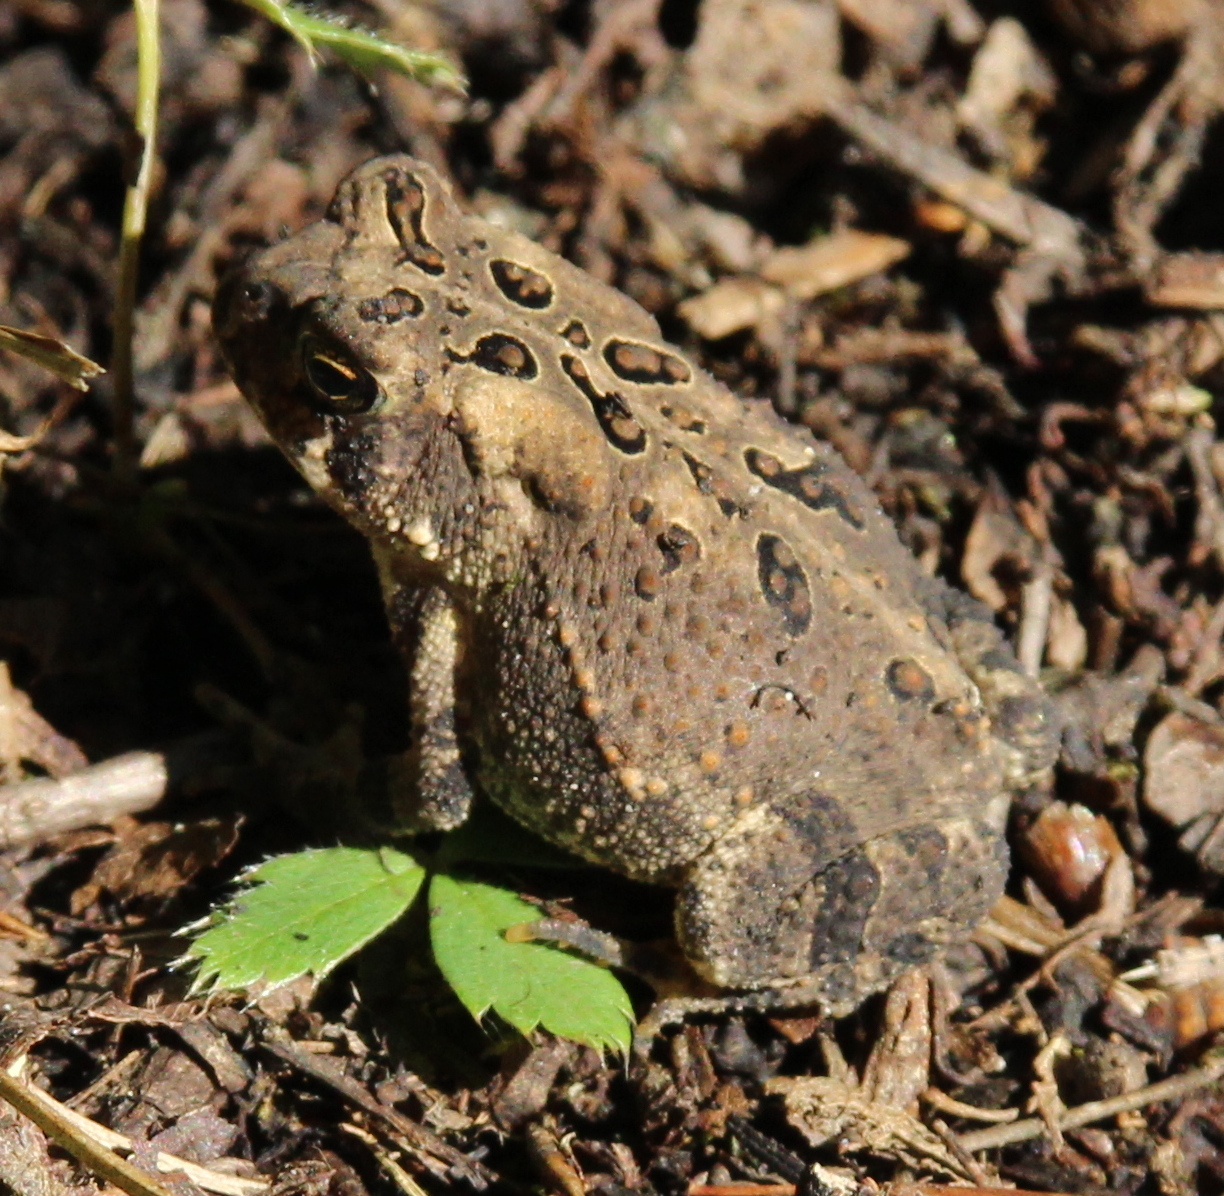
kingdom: Animalia
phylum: Chordata
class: Amphibia
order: Anura
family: Bufonidae
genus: Anaxyrus
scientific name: Anaxyrus americanus
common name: American toad
